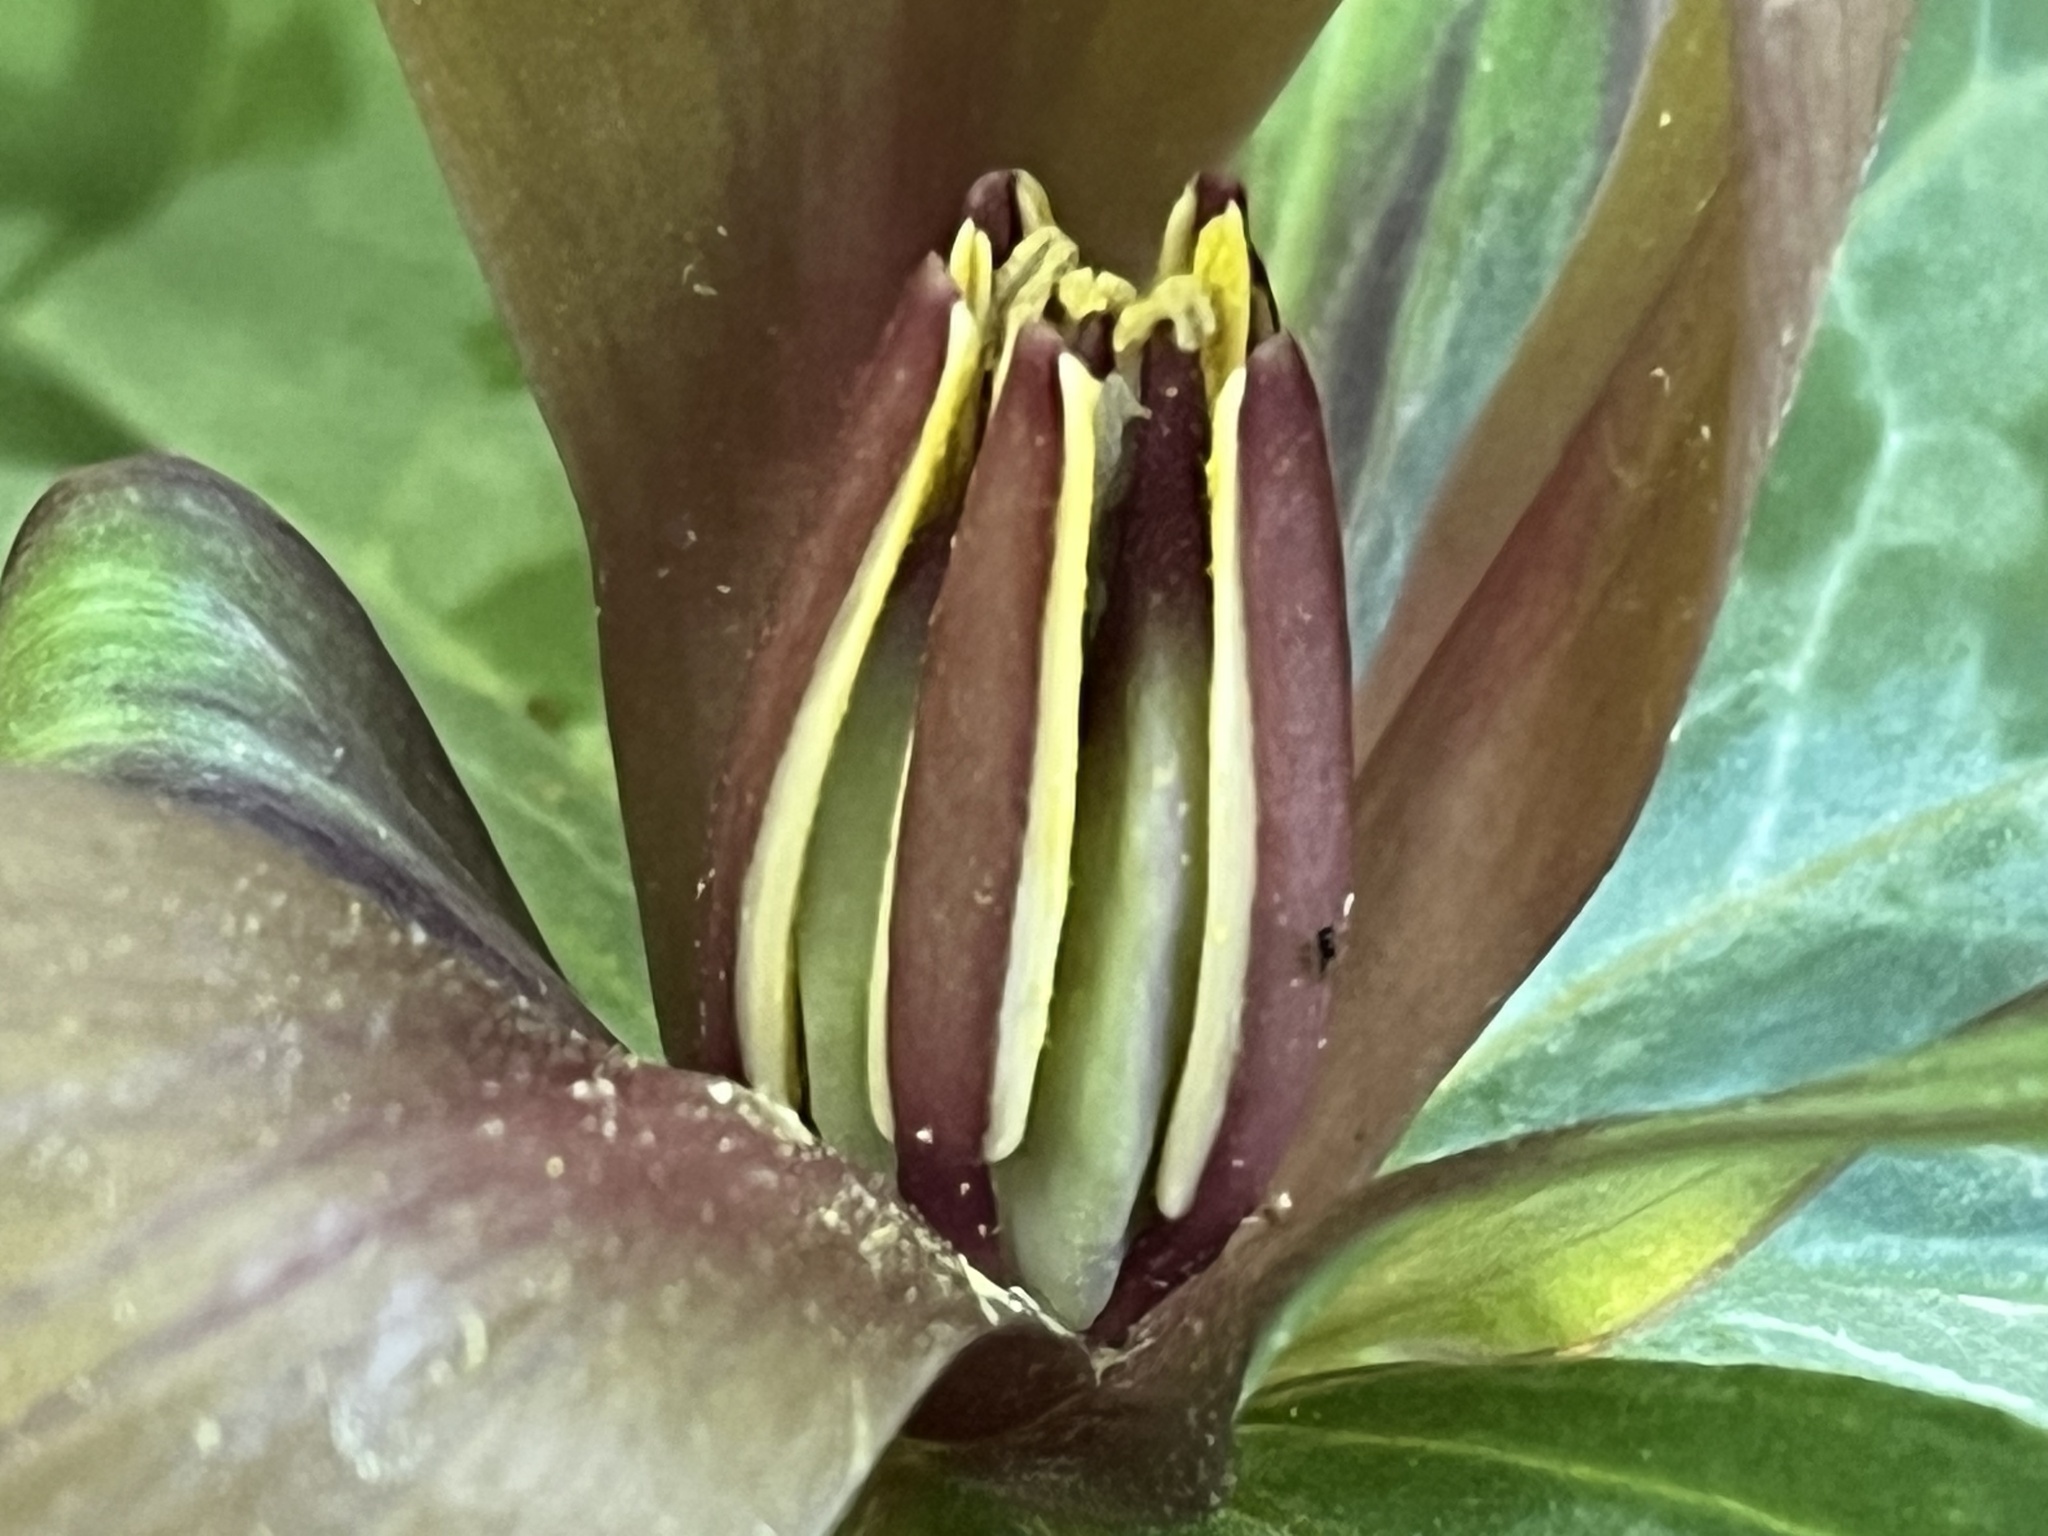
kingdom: Plantae
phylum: Tracheophyta
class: Liliopsida
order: Liliales
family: Melanthiaceae
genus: Trillium
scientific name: Trillium cuneatum
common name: Cuneate trillium
